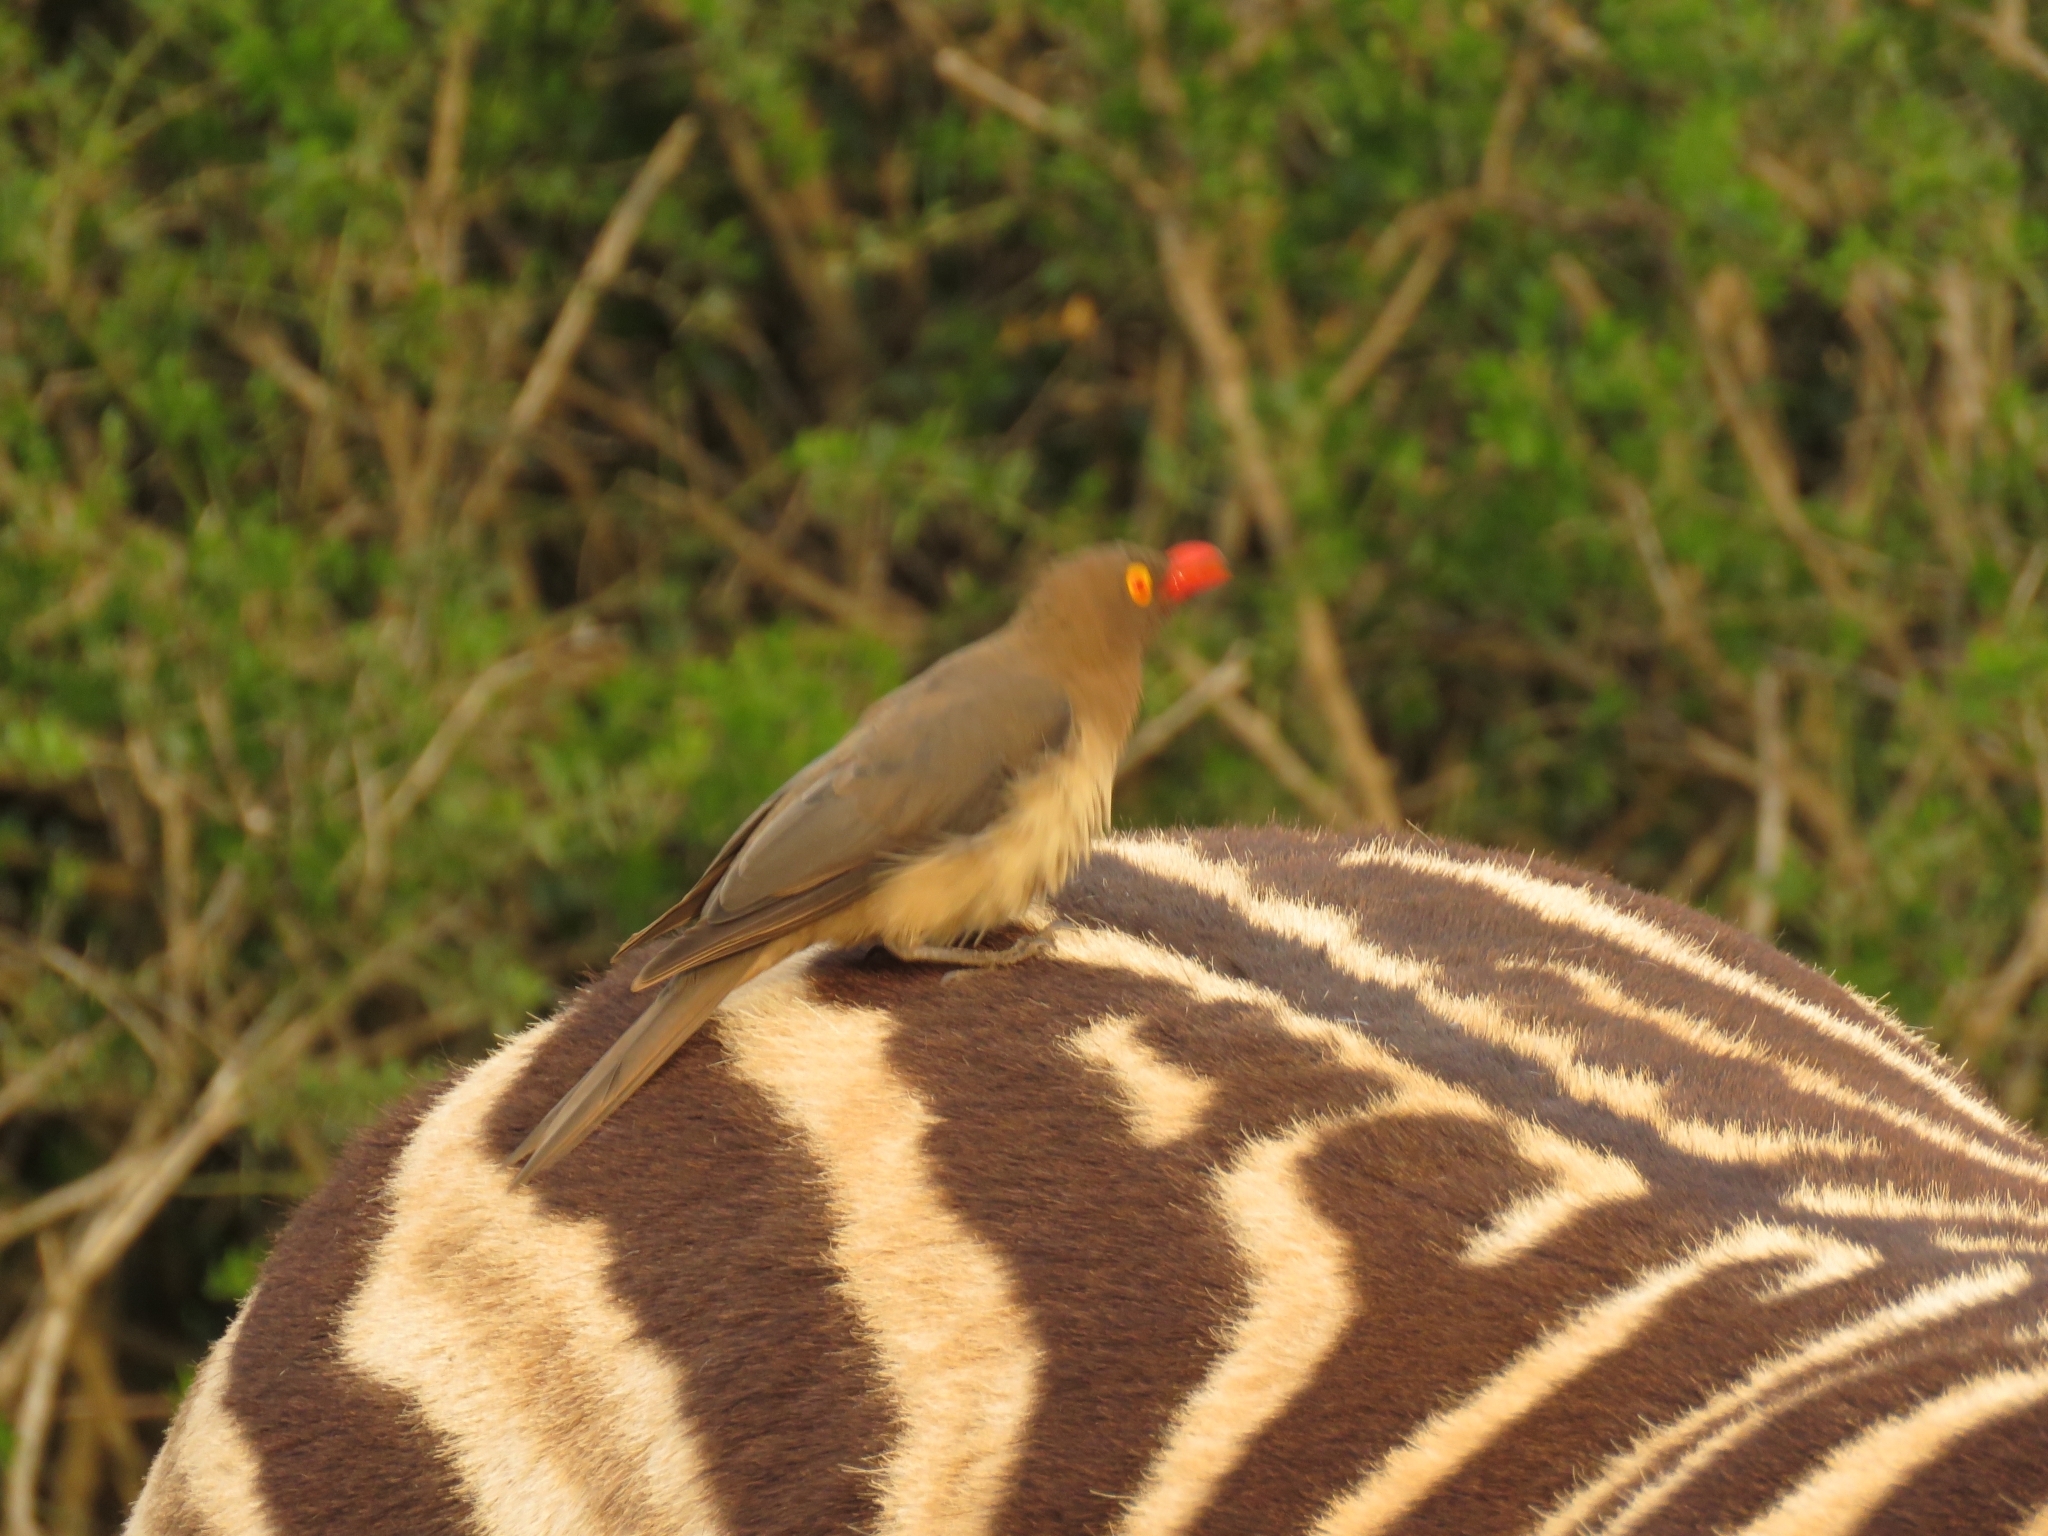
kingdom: Animalia
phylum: Chordata
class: Aves
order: Passeriformes
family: Buphagidae
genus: Buphagus
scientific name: Buphagus erythrorhynchus
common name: Red-billed oxpecker
